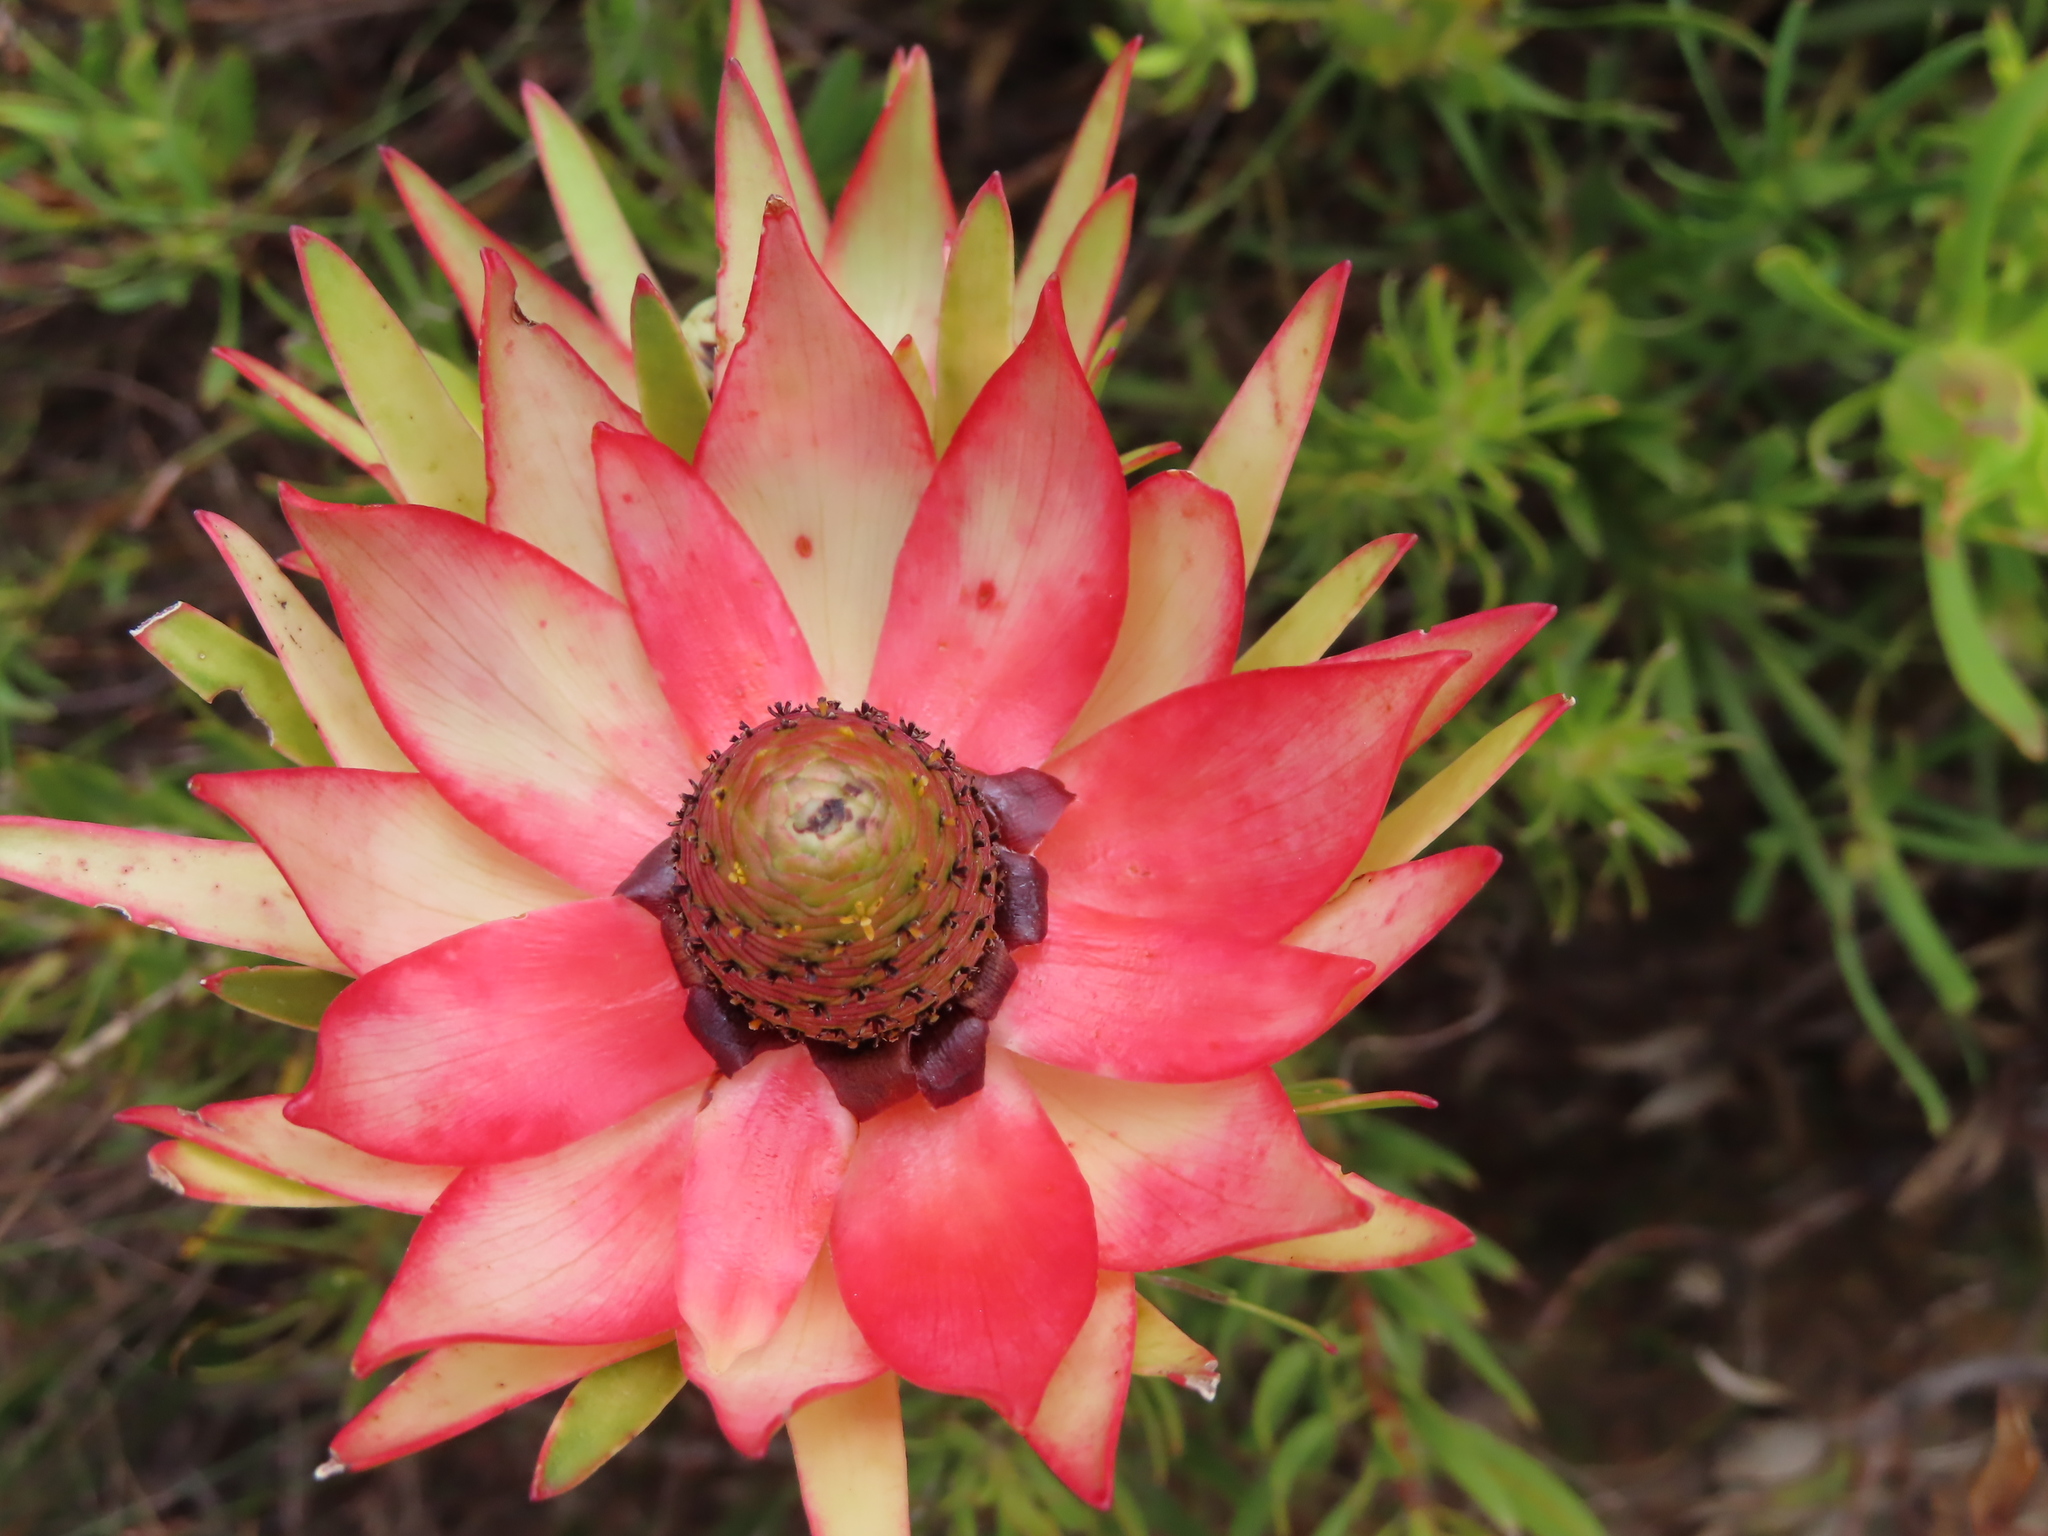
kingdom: Plantae
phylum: Tracheophyta
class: Magnoliopsida
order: Proteales
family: Proteaceae
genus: Leucadendron
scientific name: Leucadendron sessile
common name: Western sunbush
